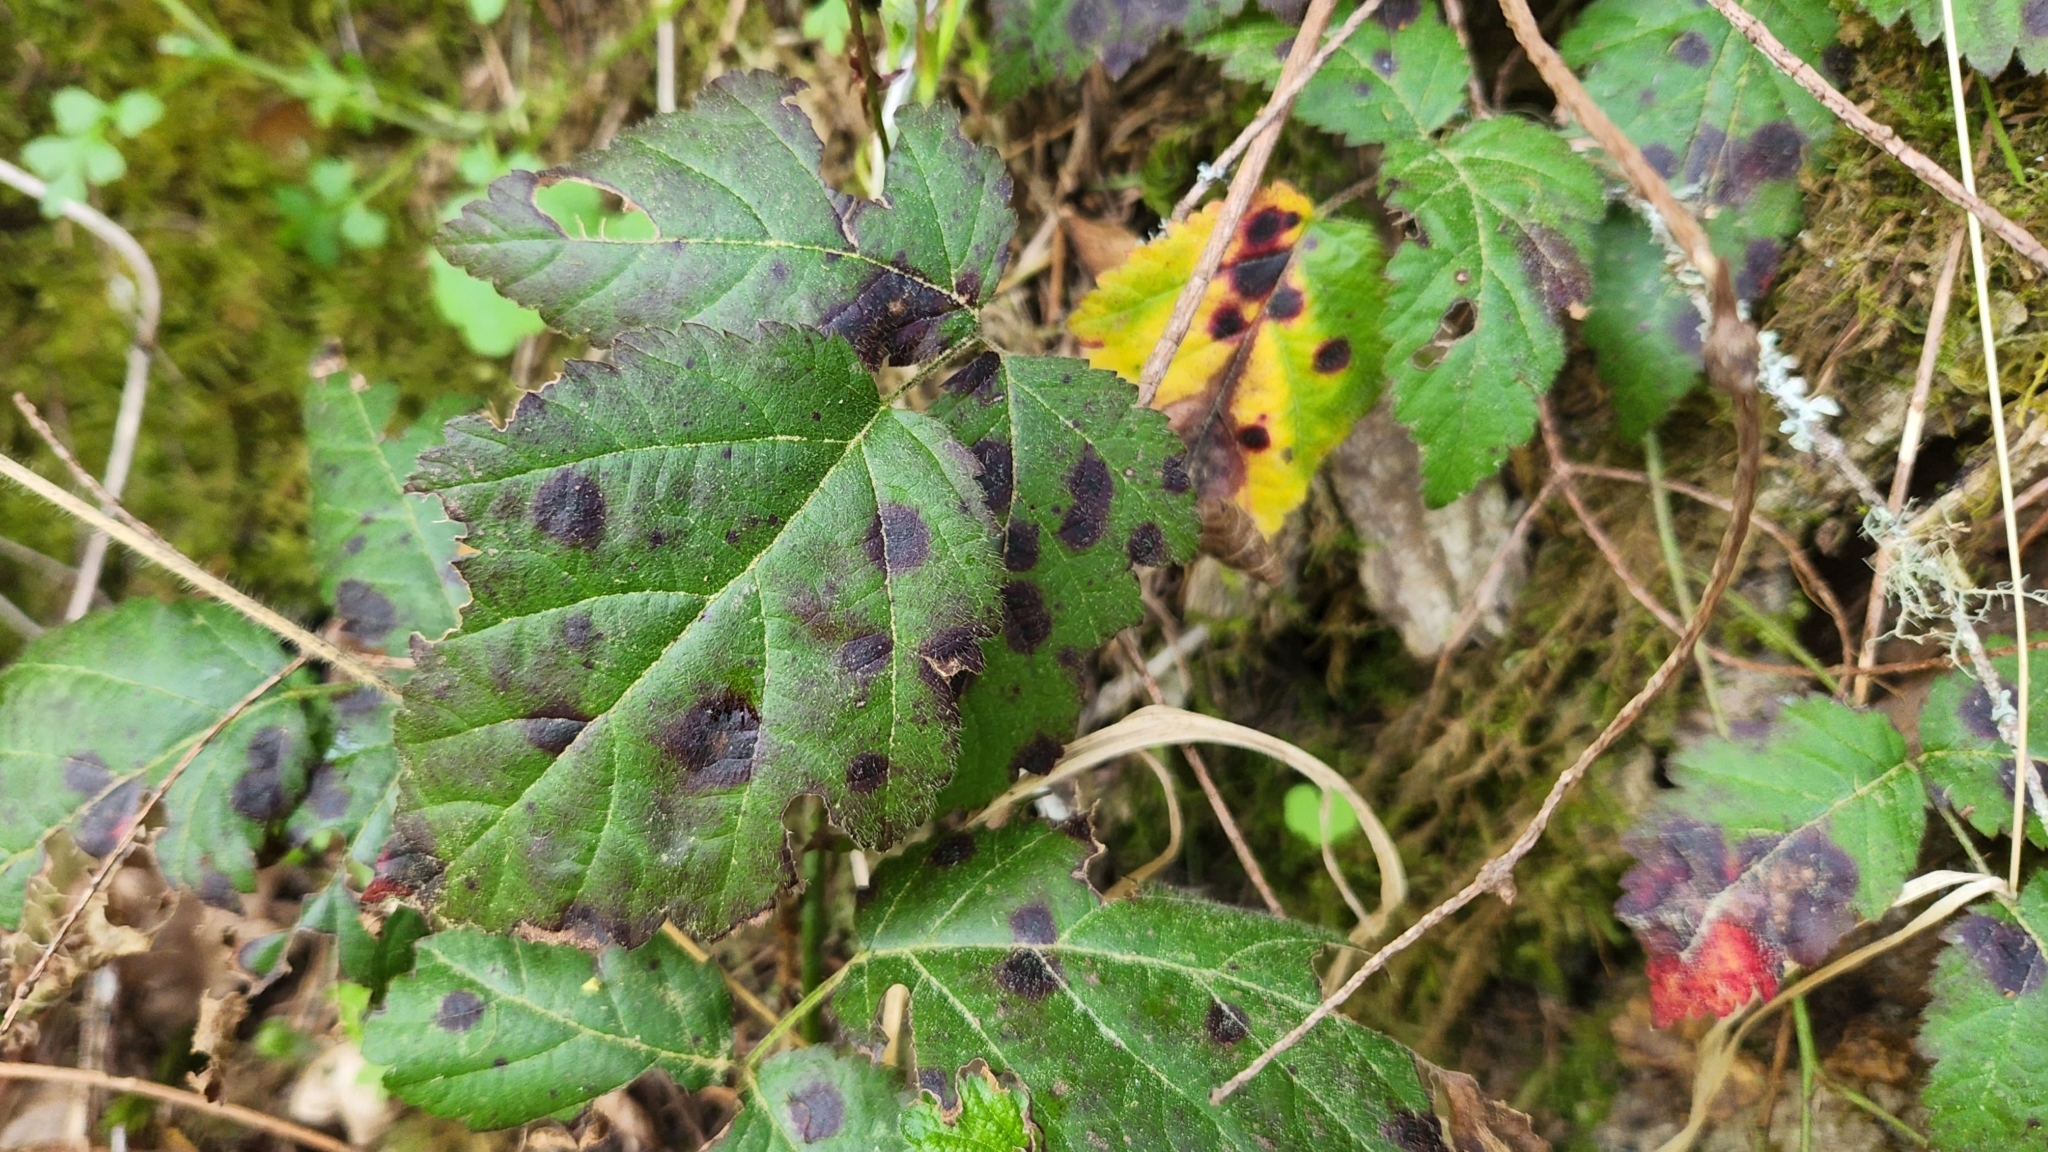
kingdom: Plantae
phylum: Tracheophyta
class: Magnoliopsida
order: Rosales
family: Rosaceae
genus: Rubus
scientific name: Rubus ursinus
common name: Pacific blackberry
